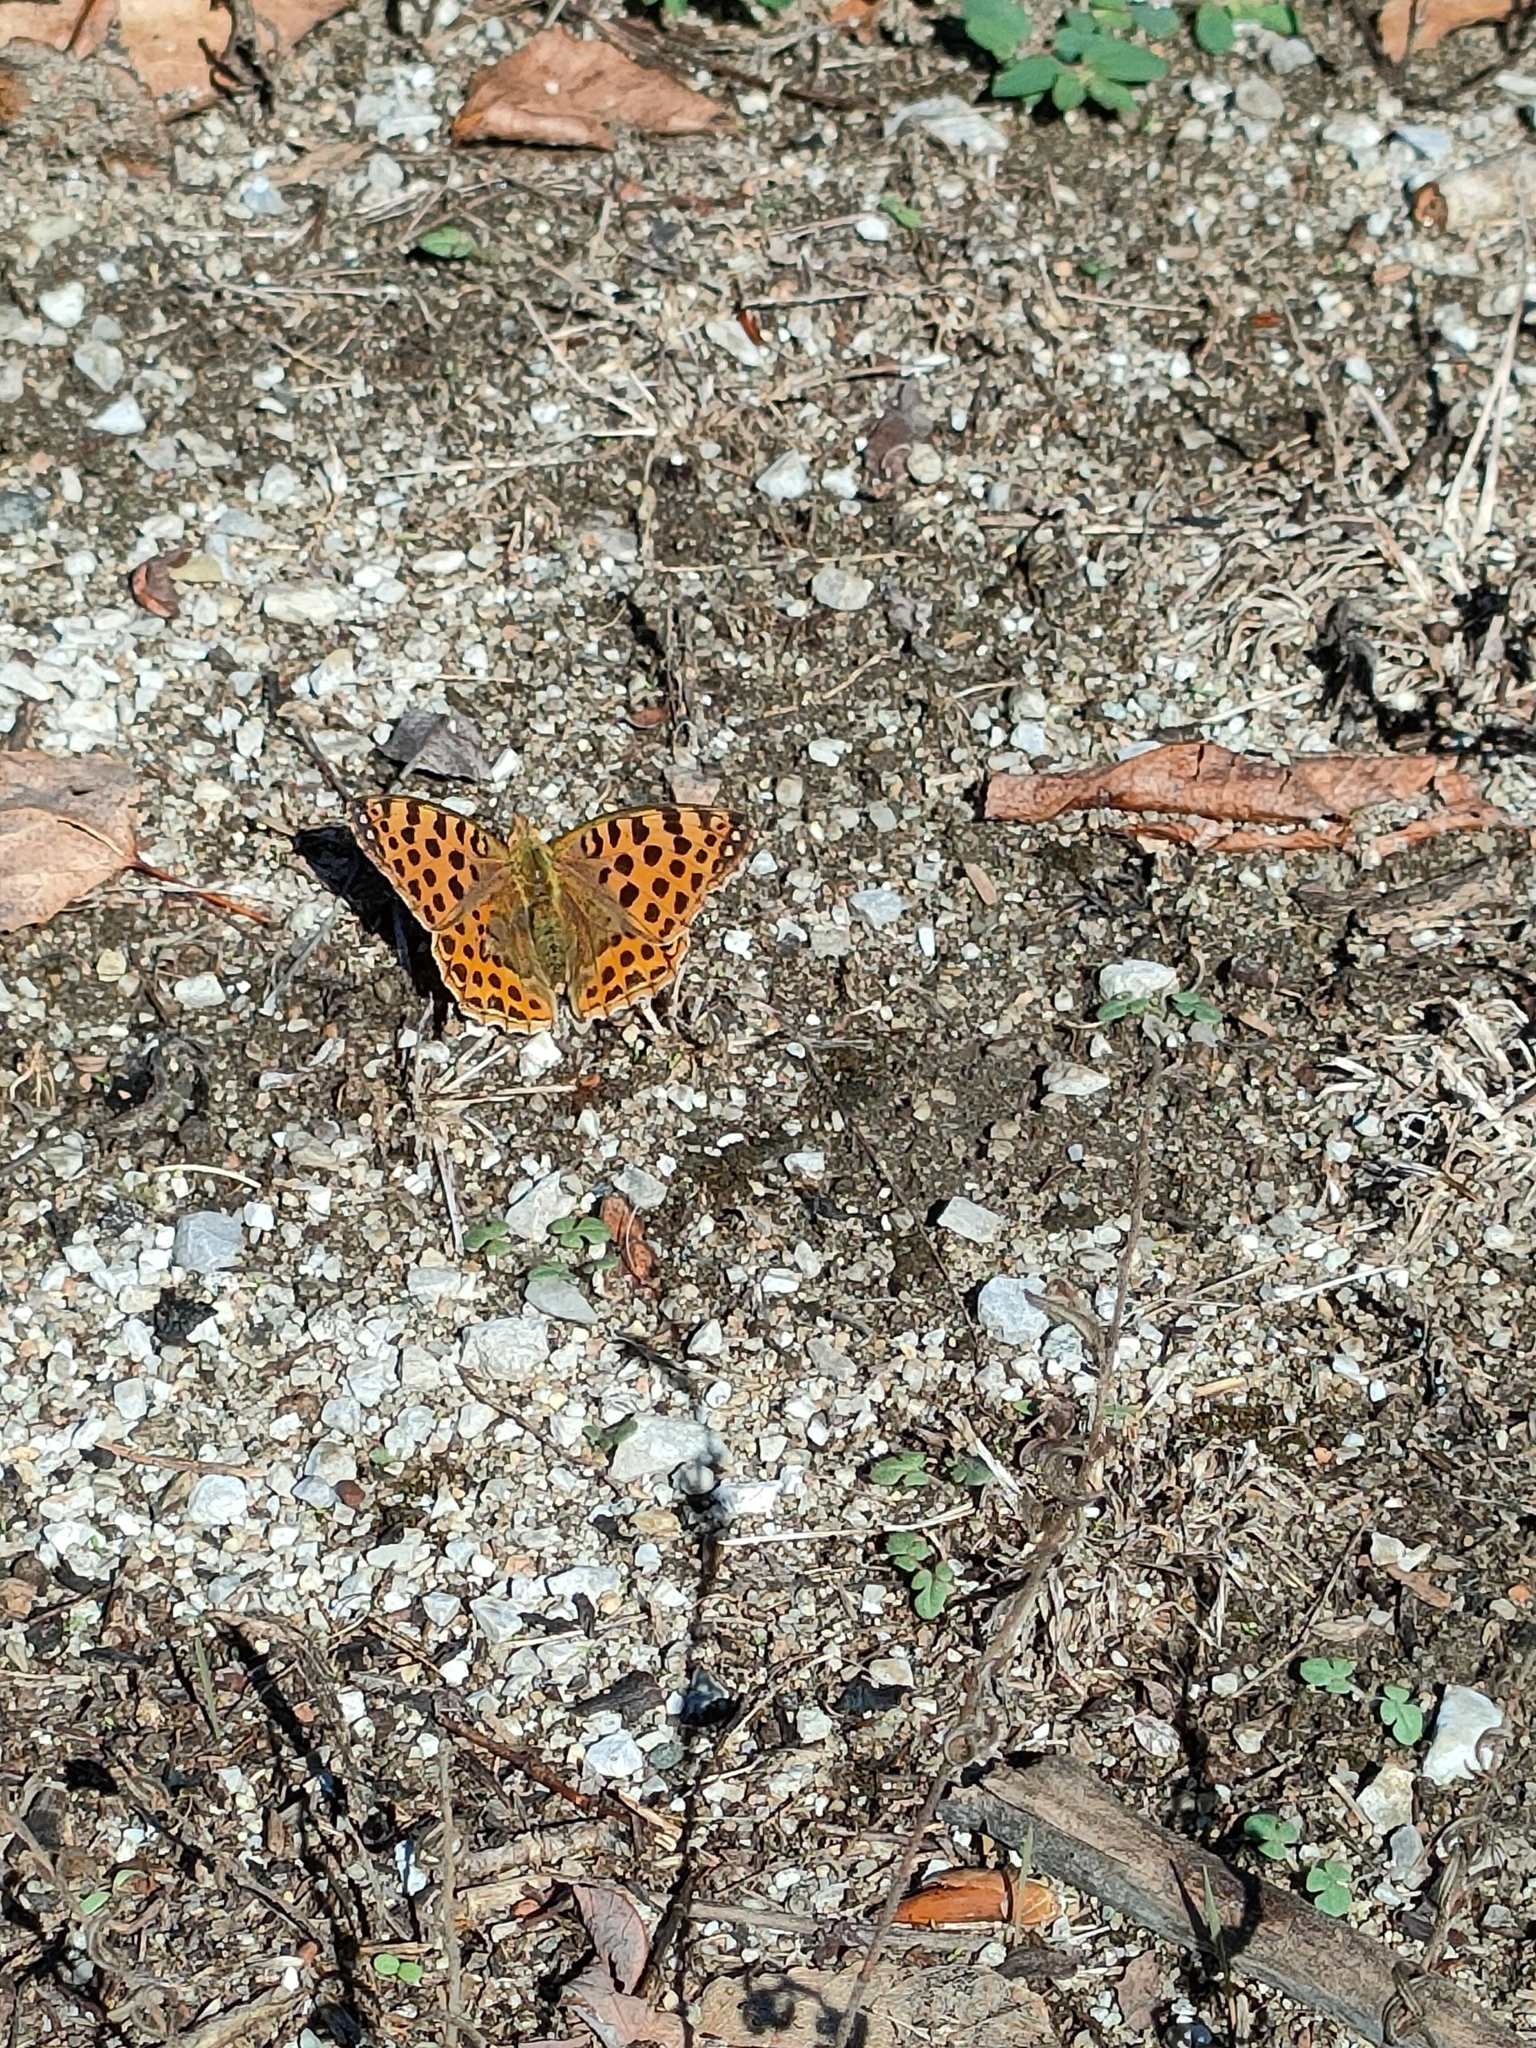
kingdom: Animalia
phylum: Arthropoda
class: Insecta
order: Lepidoptera
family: Nymphalidae
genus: Issoria
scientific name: Issoria lathonia
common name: Queen of spain fritillary
